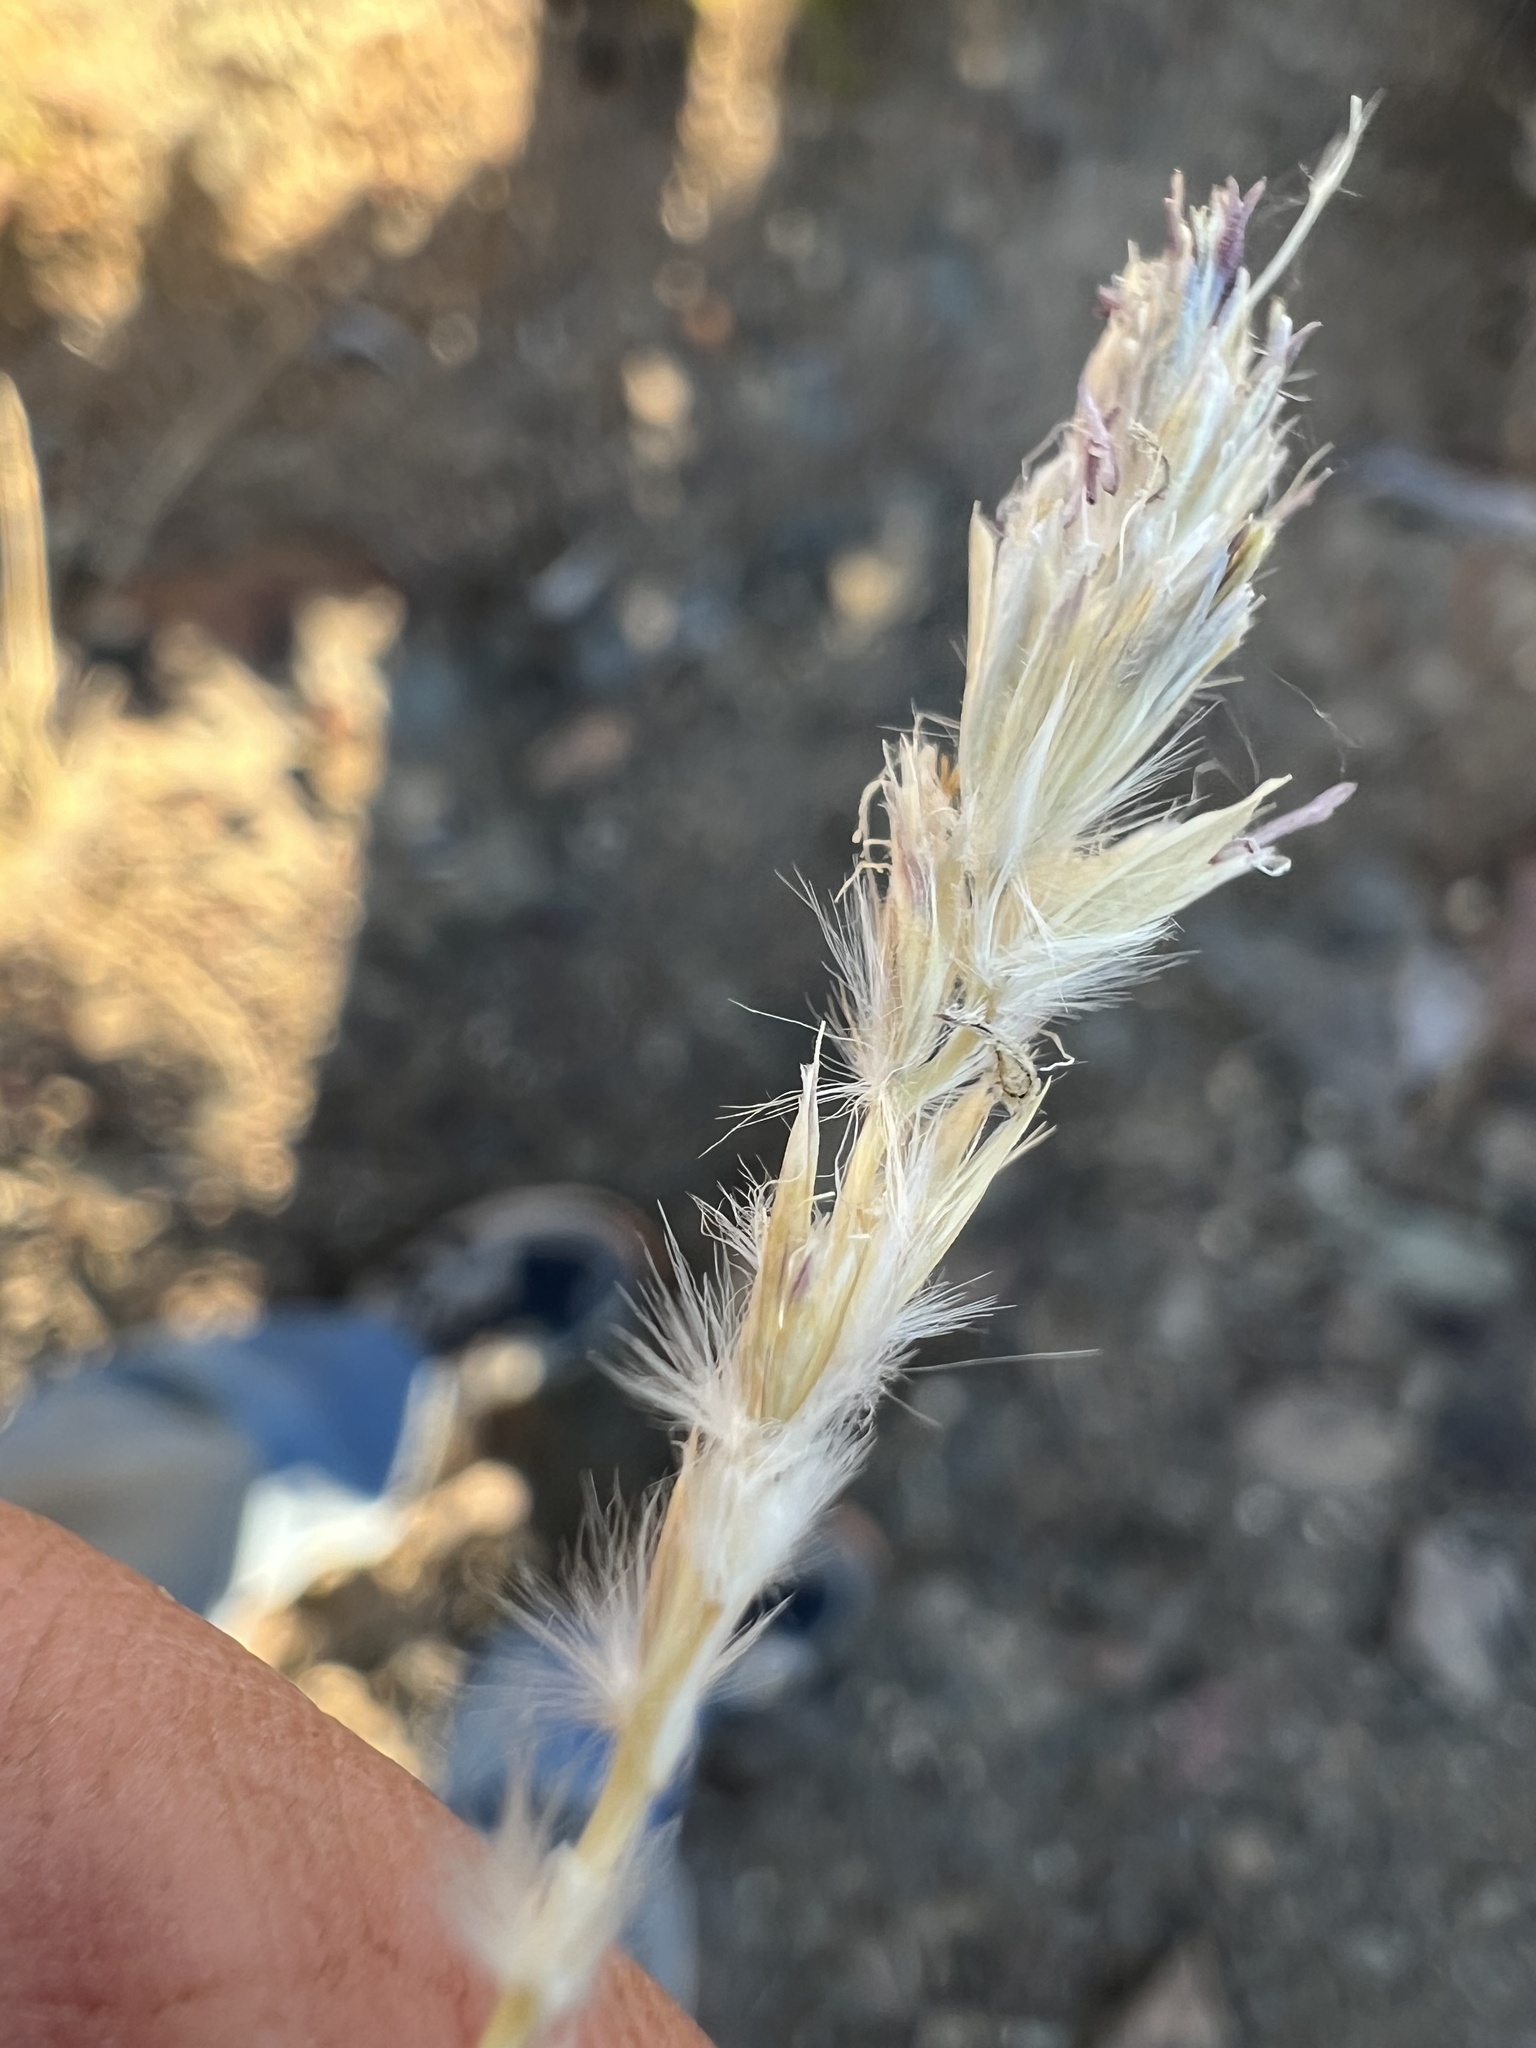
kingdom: Plantae
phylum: Tracheophyta
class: Liliopsida
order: Poales
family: Poaceae
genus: Hilaria
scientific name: Hilaria jamesii
